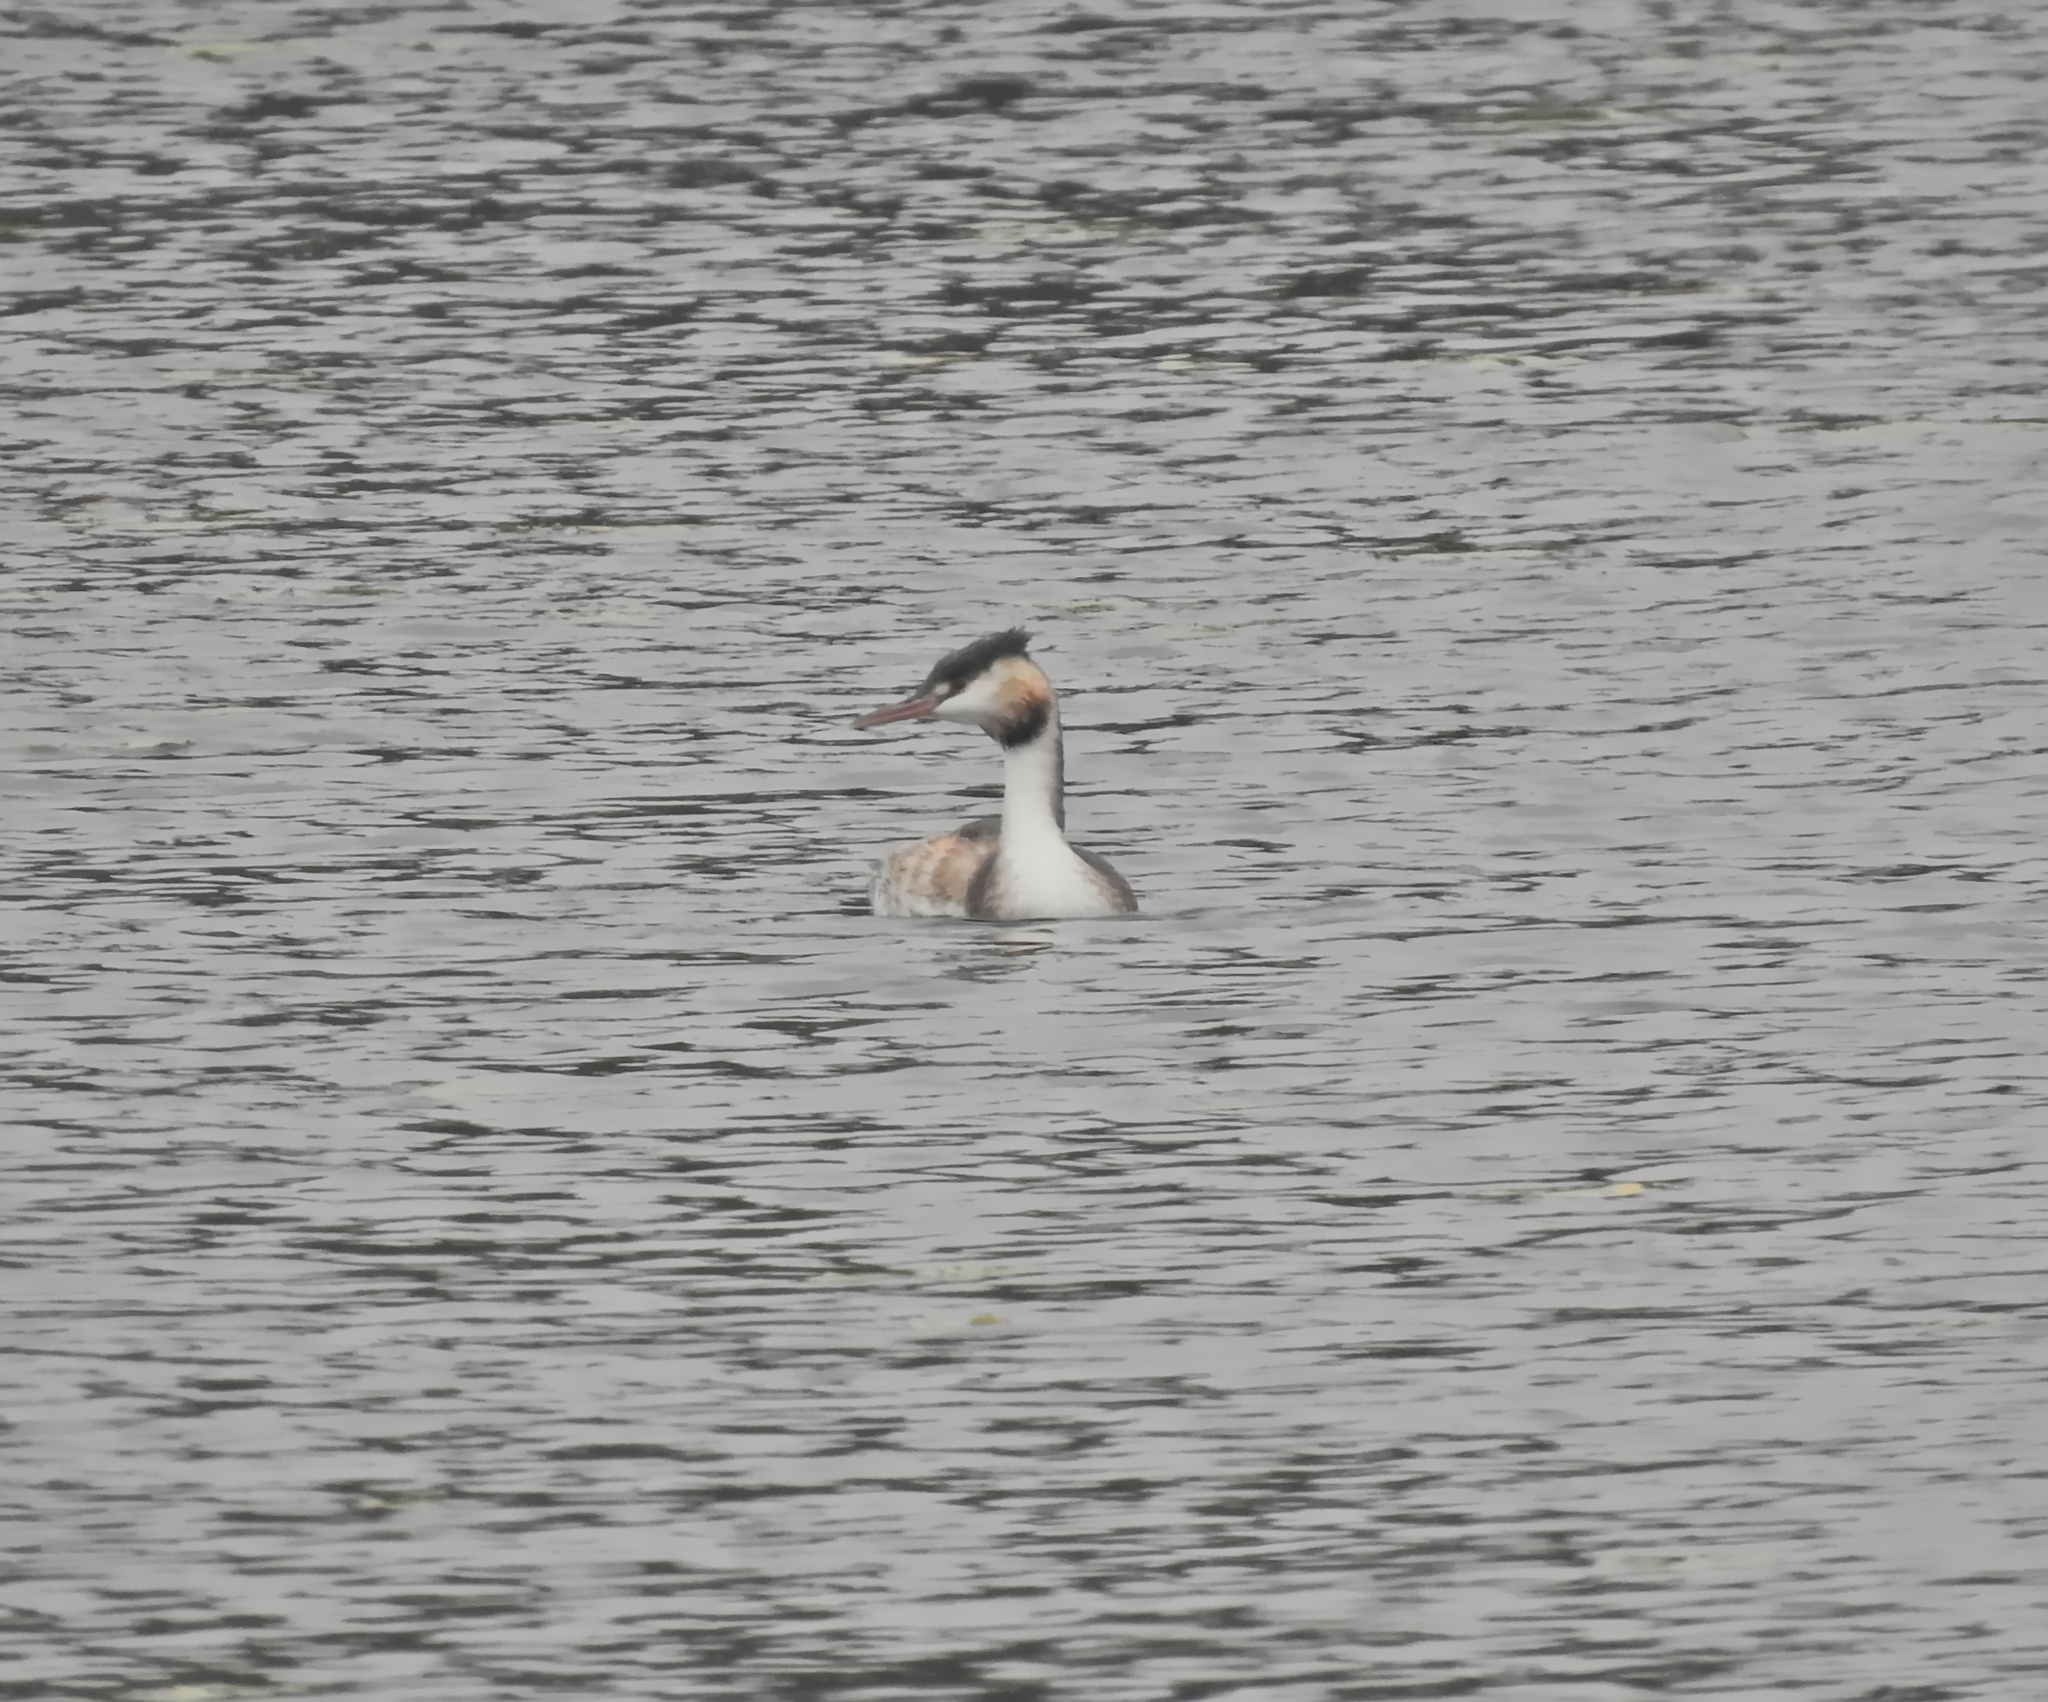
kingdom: Animalia
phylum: Chordata
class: Aves
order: Podicipediformes
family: Podicipedidae
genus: Podiceps
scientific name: Podiceps cristatus
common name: Great crested grebe
